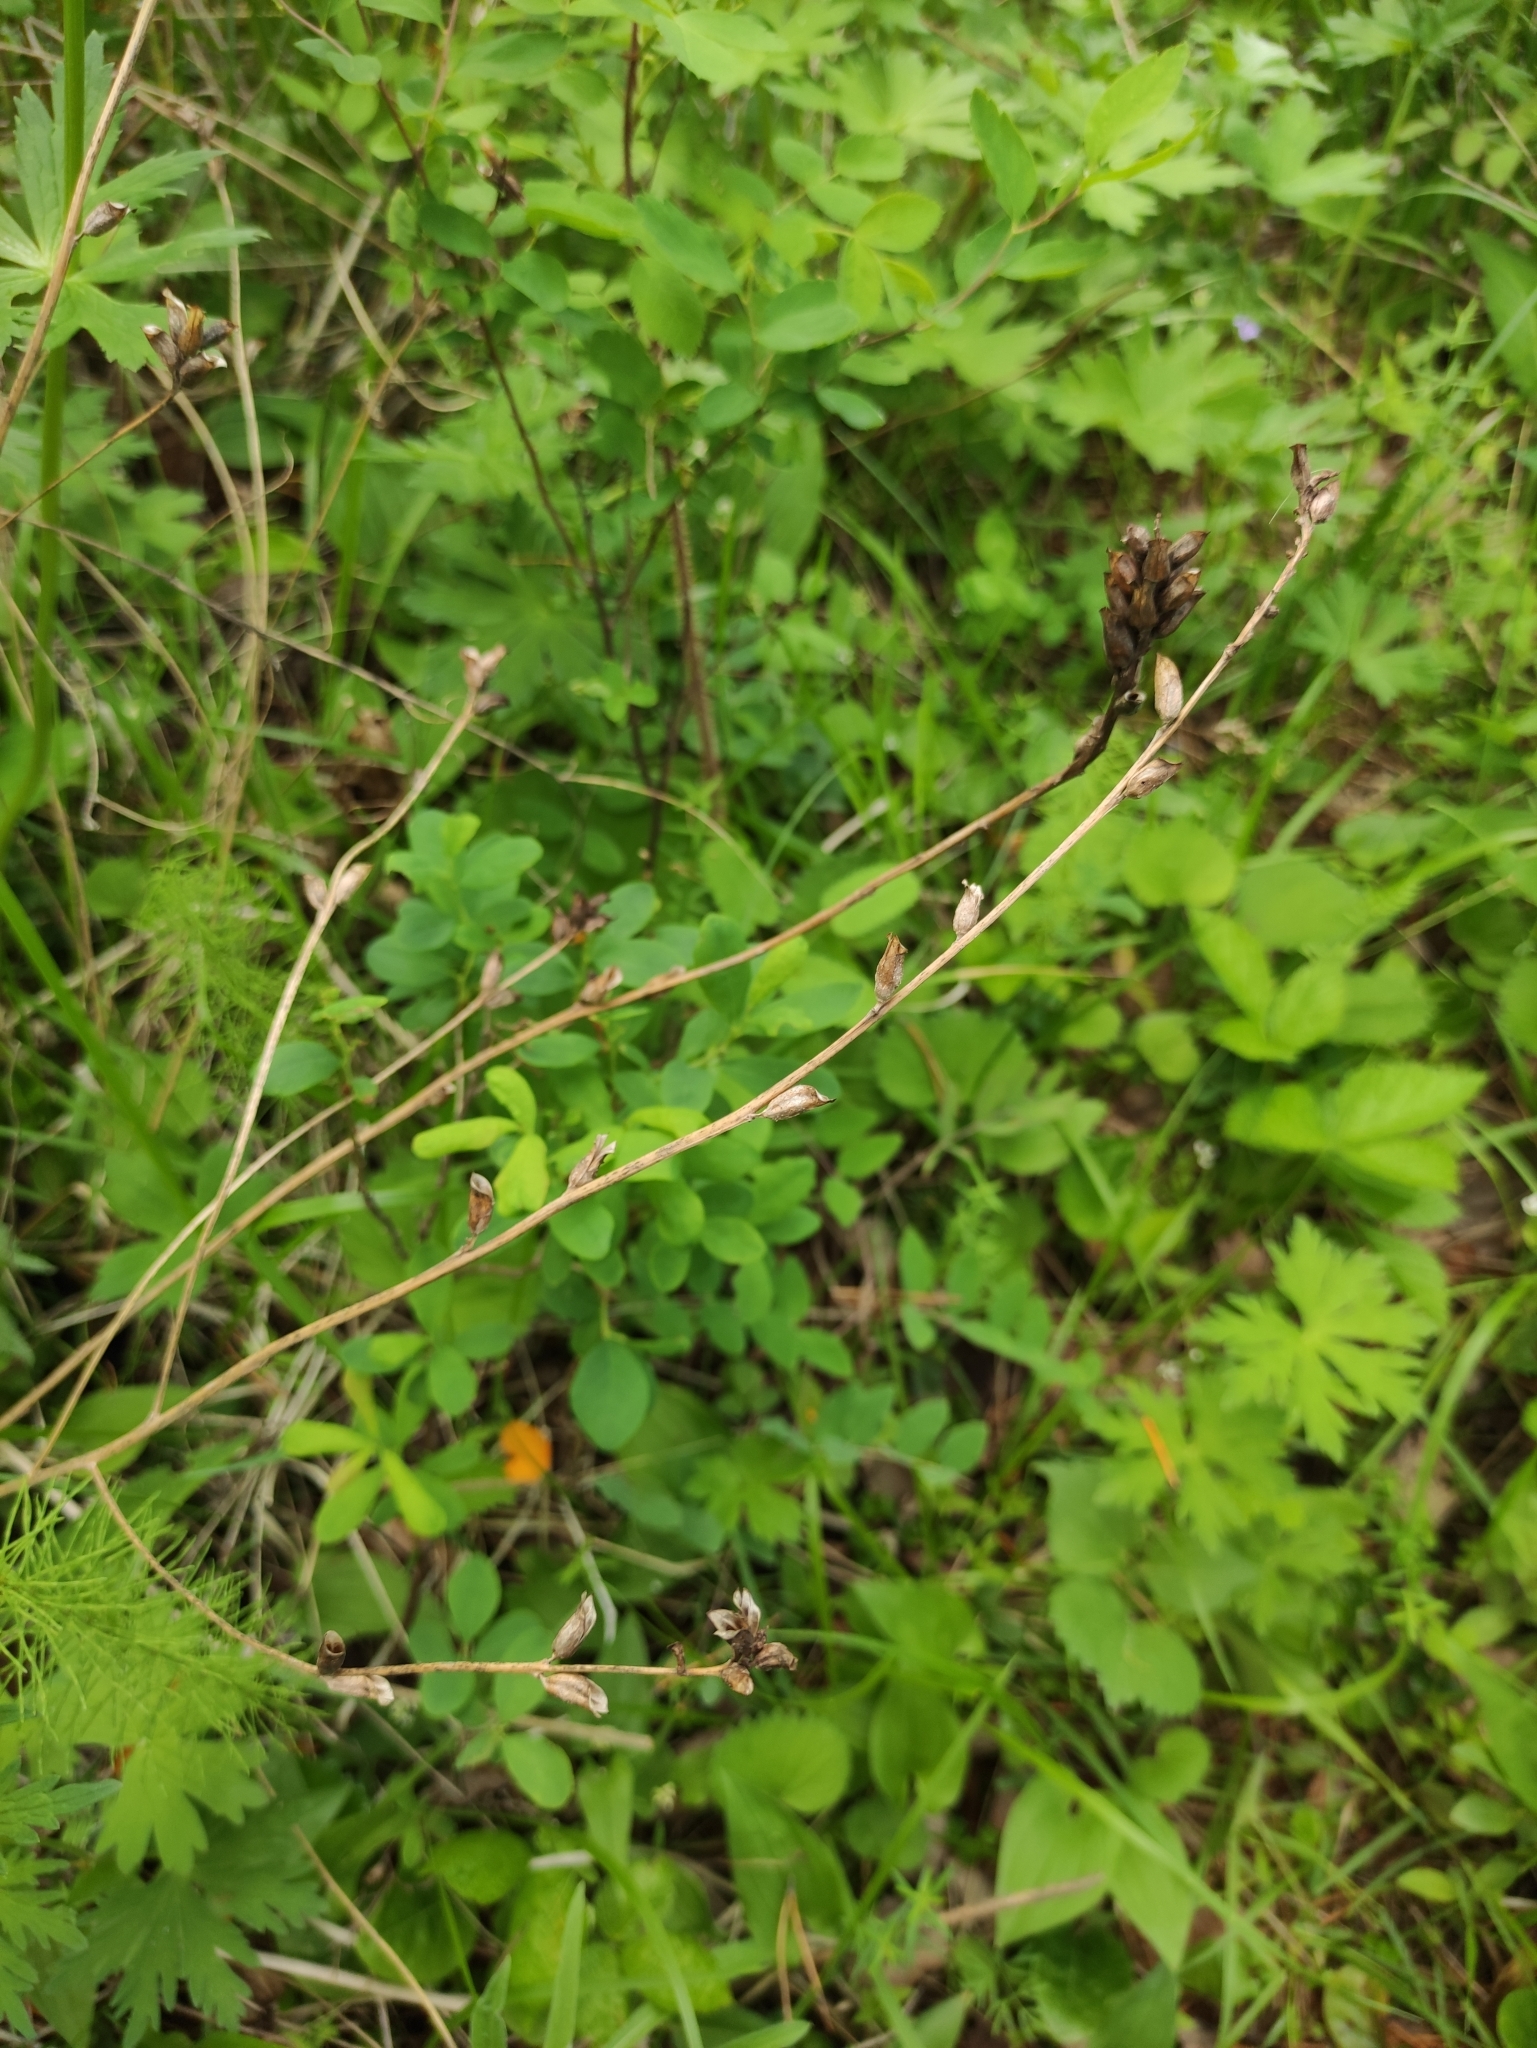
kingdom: Plantae
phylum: Tracheophyta
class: Magnoliopsida
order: Lamiales
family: Orobanchaceae
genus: Pedicularis
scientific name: Pedicularis resupinata
